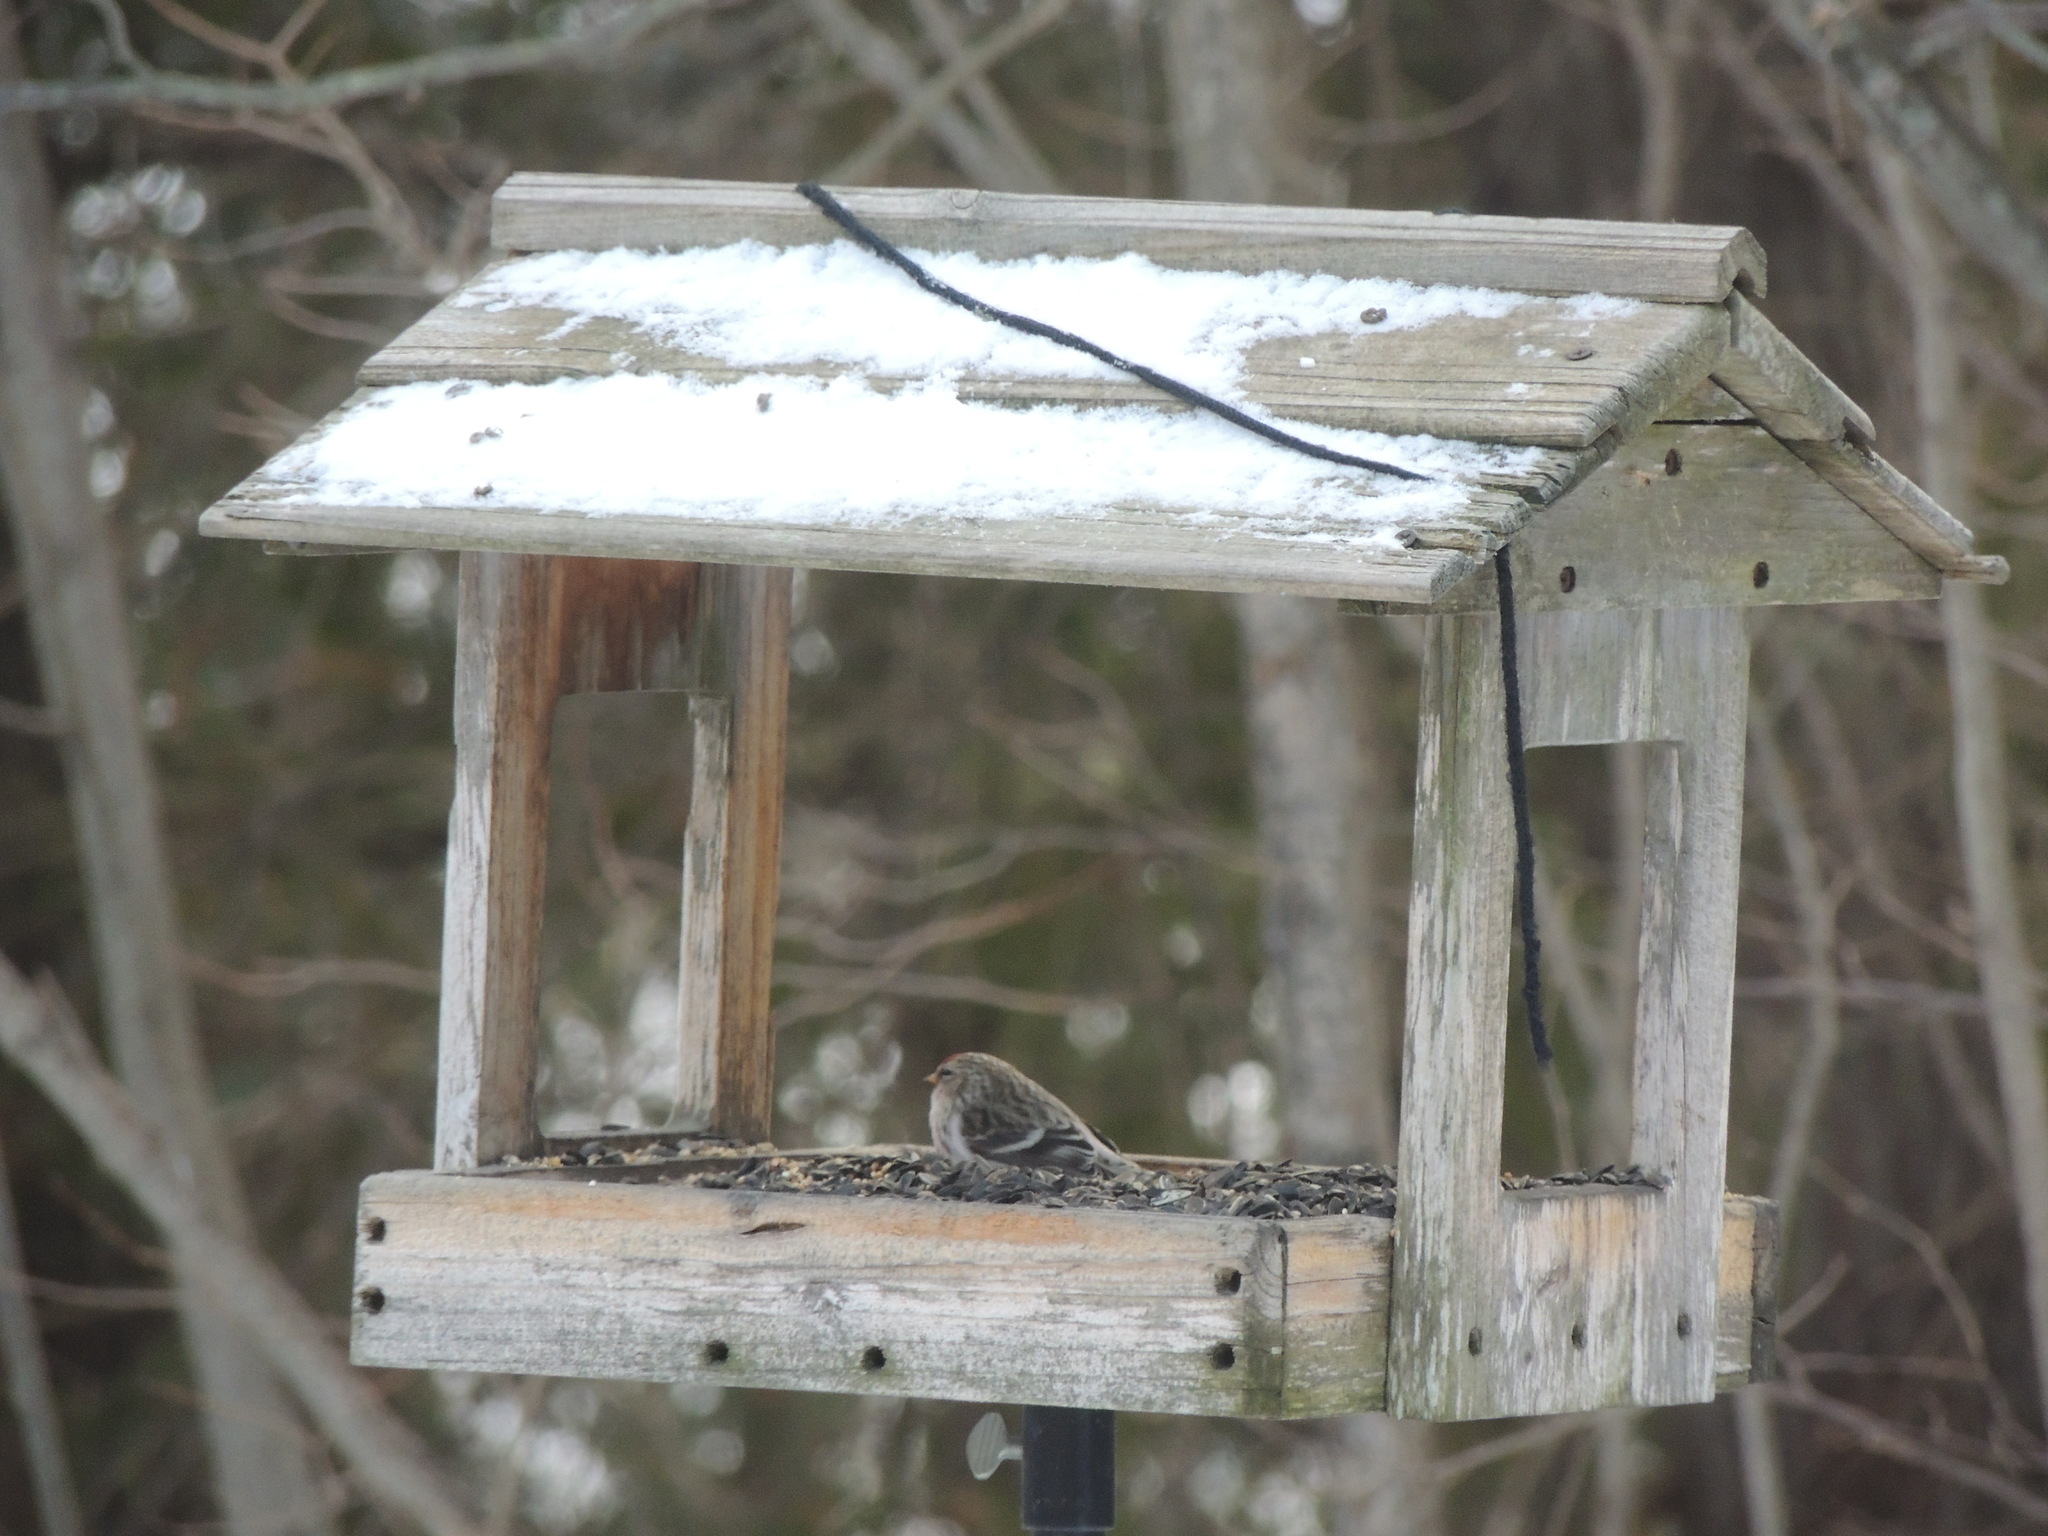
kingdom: Animalia
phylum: Chordata
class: Aves
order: Passeriformes
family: Fringillidae
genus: Acanthis
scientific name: Acanthis flammea
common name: Common redpoll
